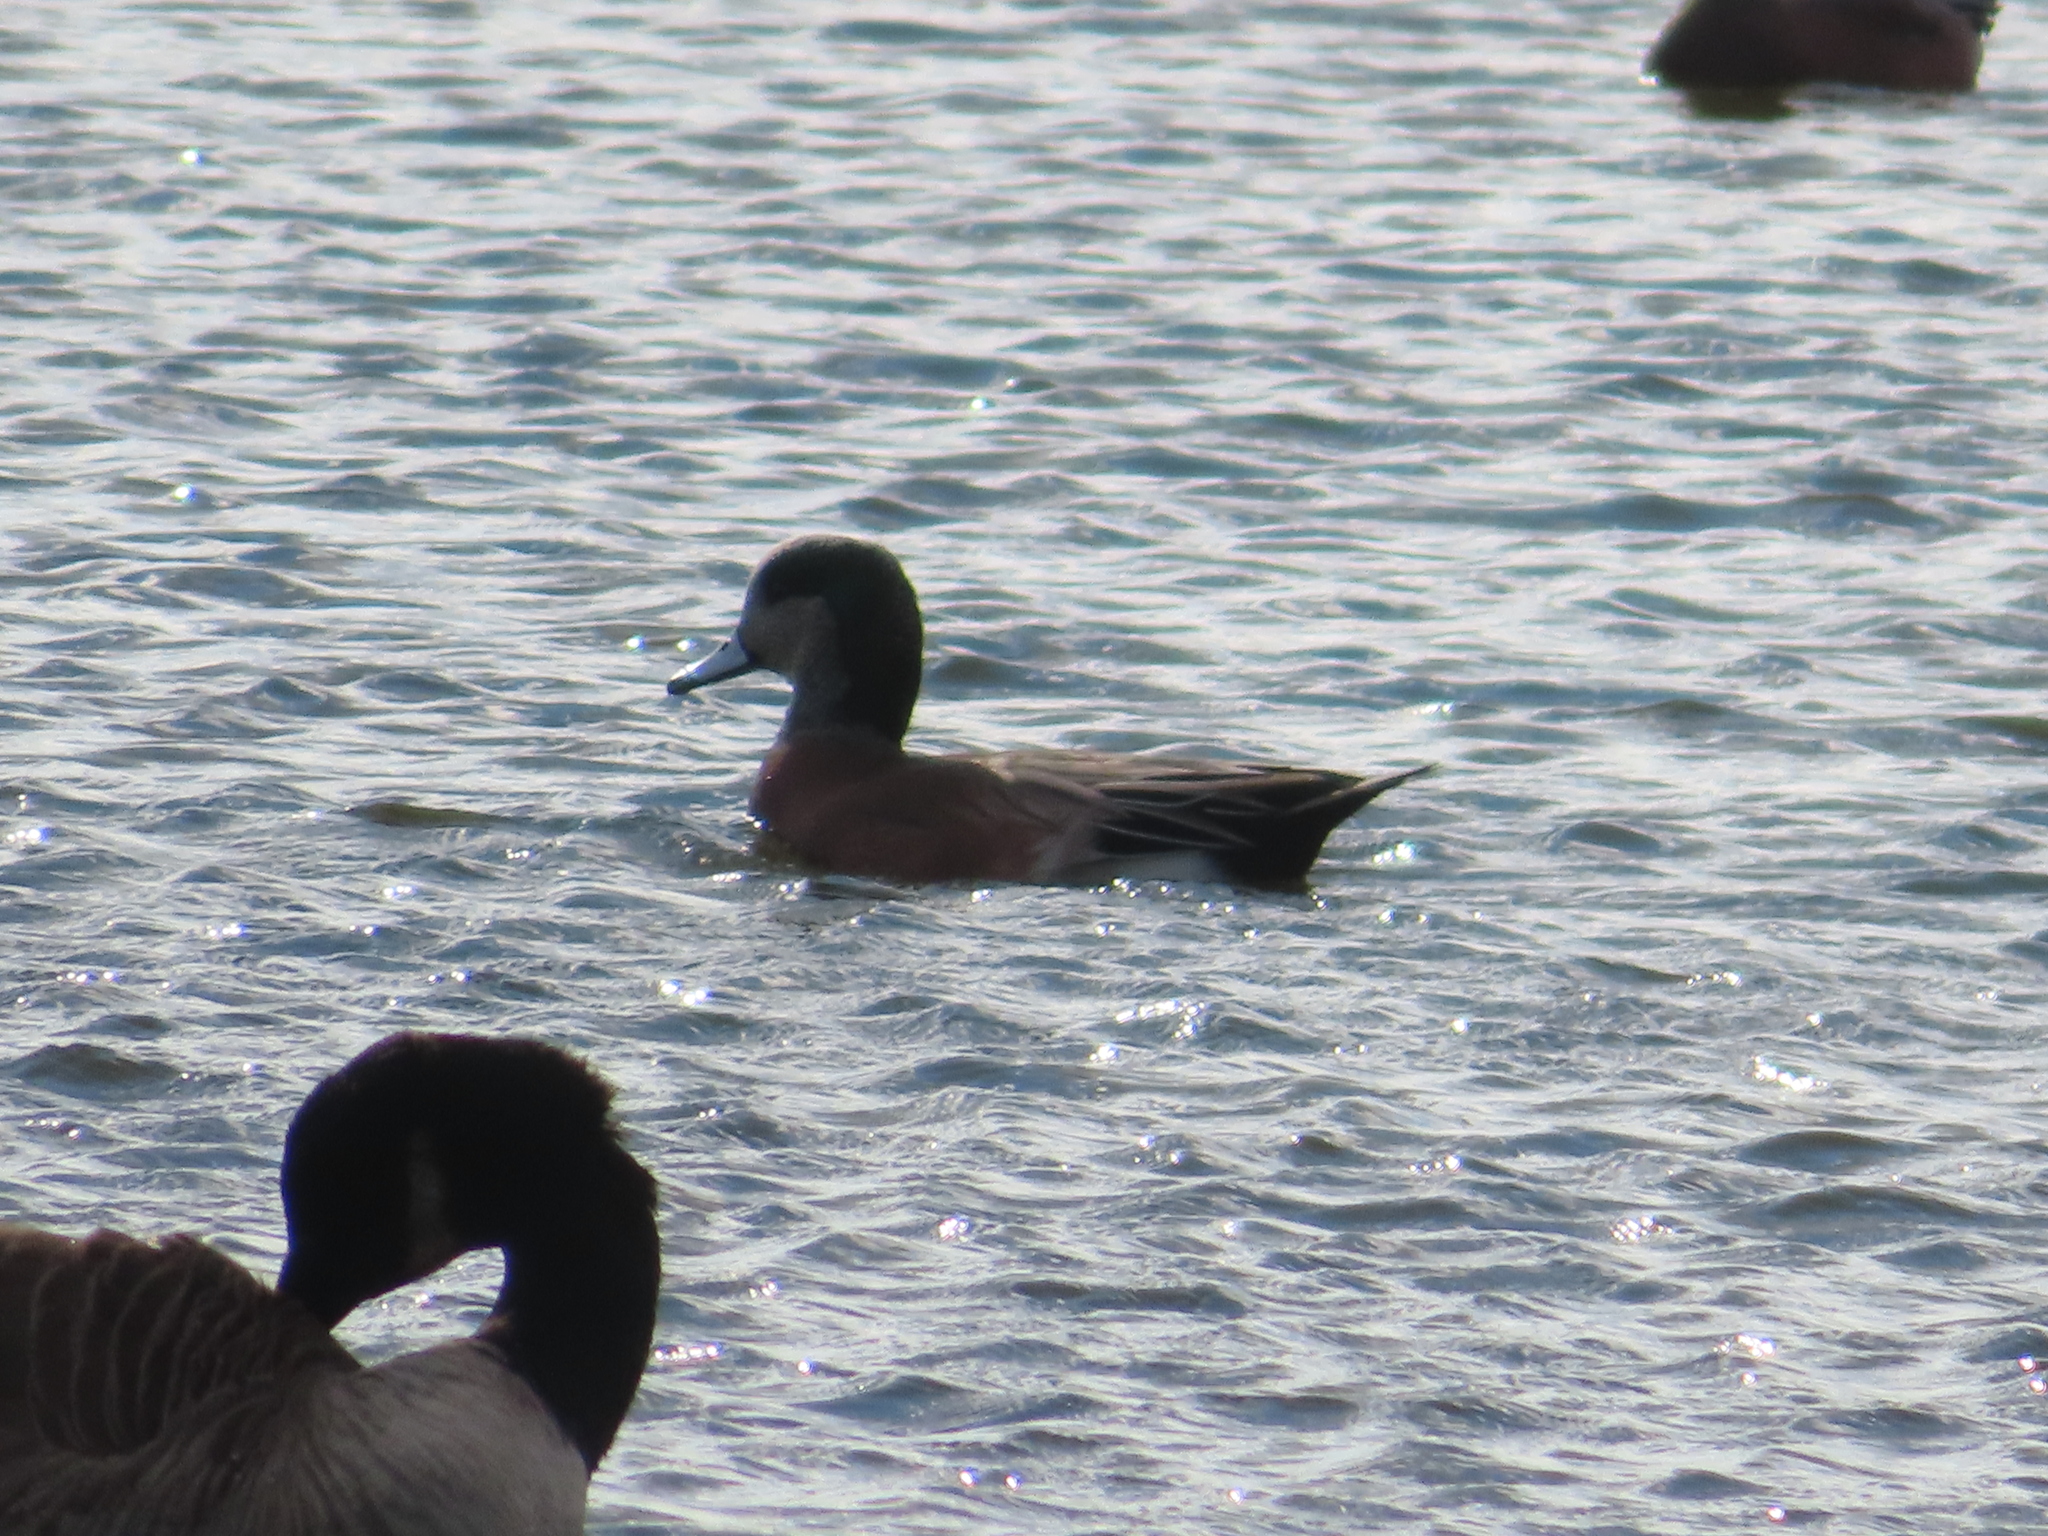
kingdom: Animalia
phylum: Chordata
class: Aves
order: Anseriformes
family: Anatidae
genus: Mareca
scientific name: Mareca americana
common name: American wigeon
